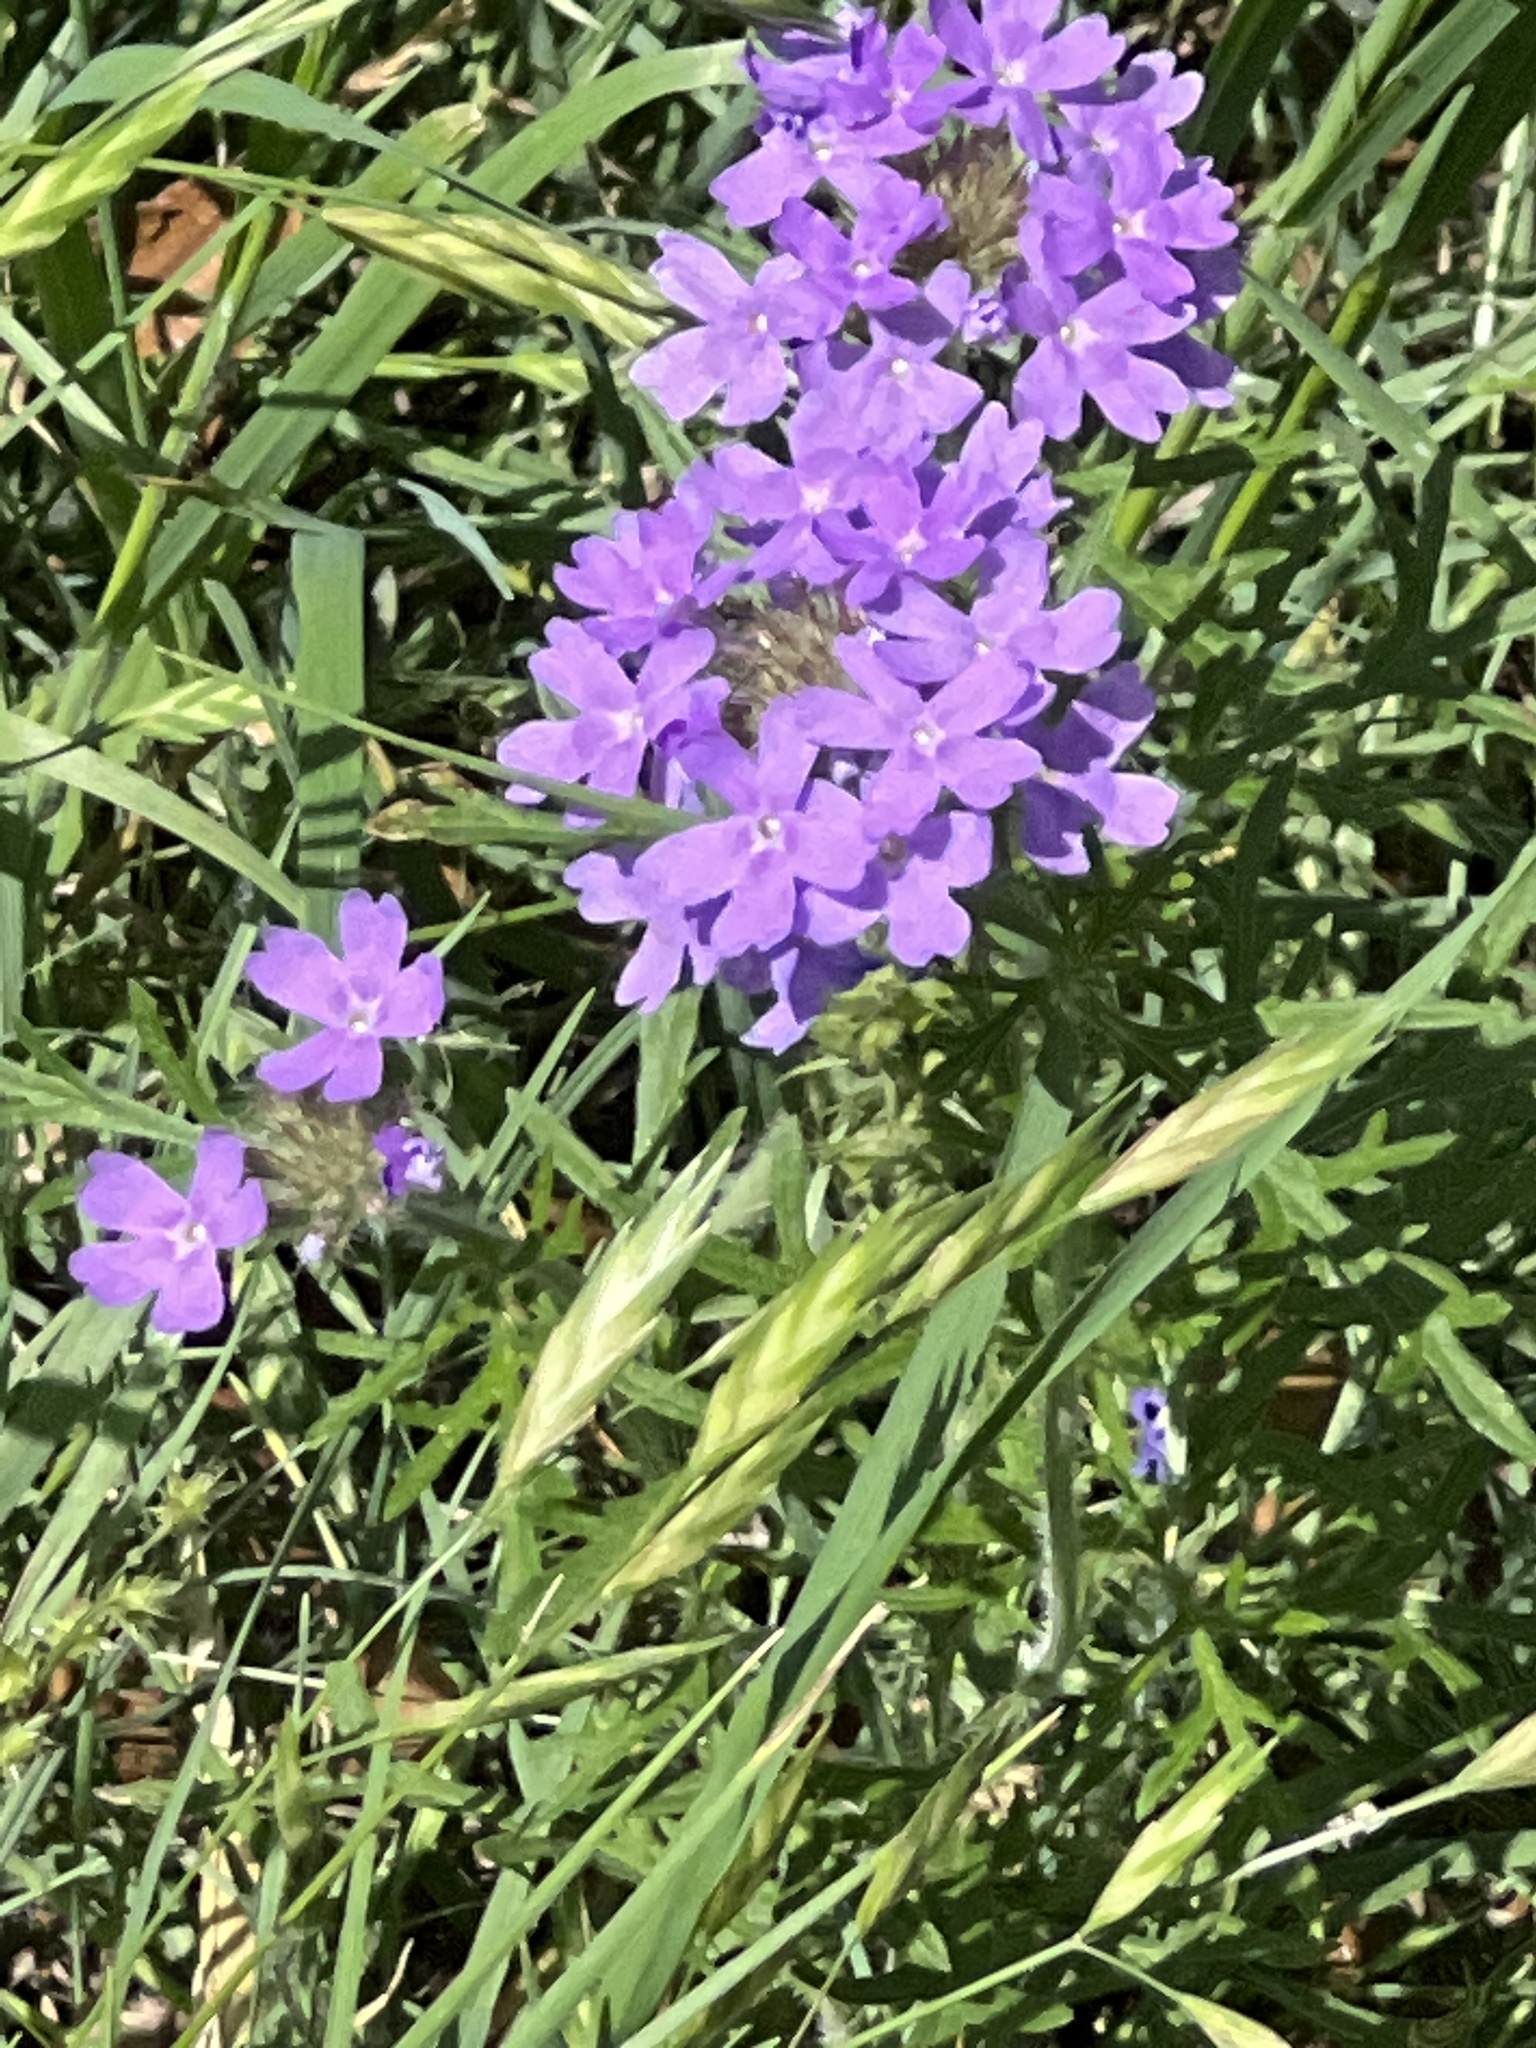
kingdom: Plantae
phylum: Tracheophyta
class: Magnoliopsida
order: Lamiales
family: Verbenaceae
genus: Verbena
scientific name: Verbena bipinnatifida
